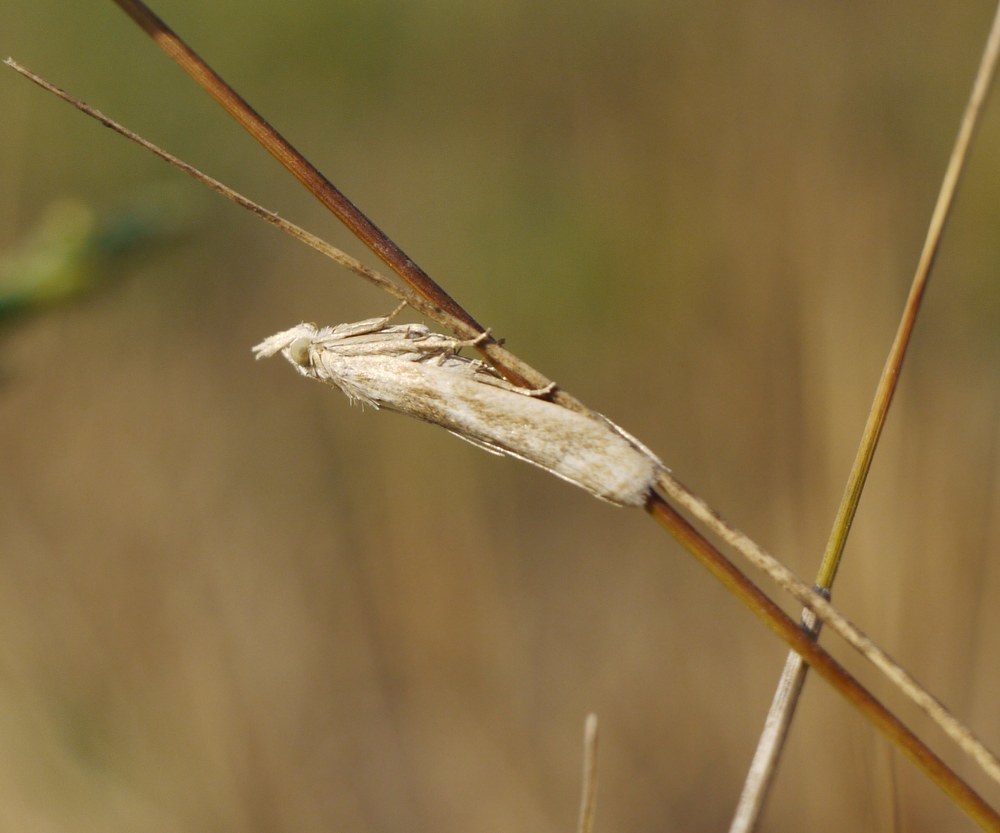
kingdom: Animalia
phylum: Arthropoda
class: Insecta
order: Lepidoptera
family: Pyralidae
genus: Bradyrrhoa
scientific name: Bradyrrhoa gilveolella
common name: Pyralid moth
